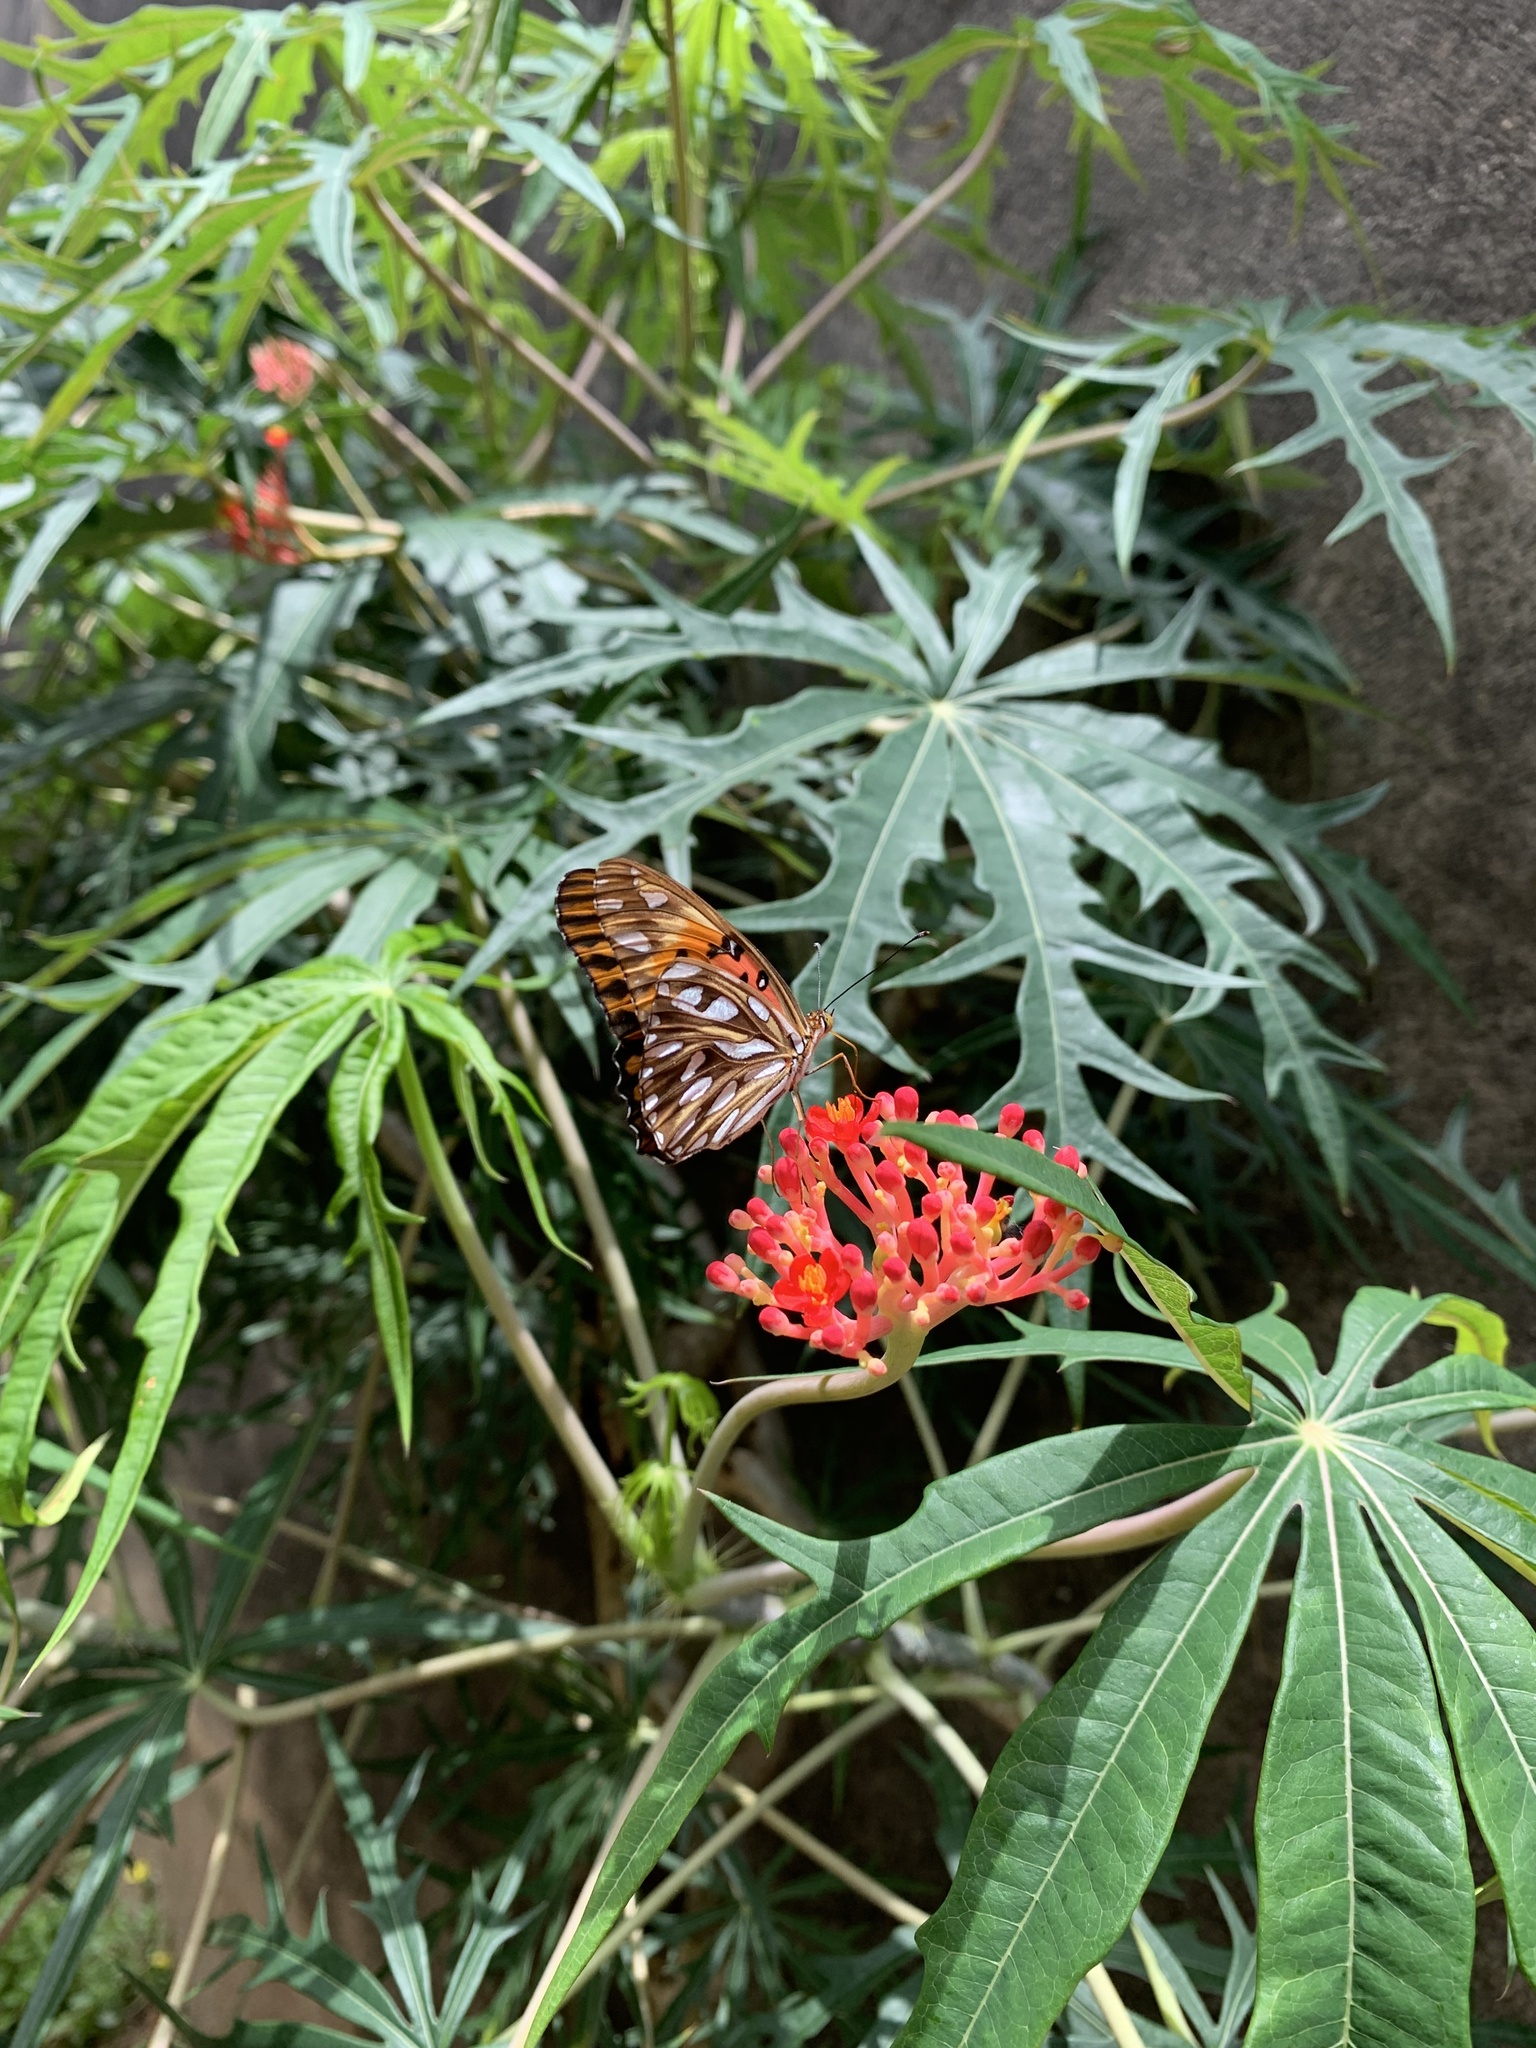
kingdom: Animalia
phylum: Arthropoda
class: Insecta
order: Lepidoptera
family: Nymphalidae
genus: Dione
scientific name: Dione vanillae
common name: Gulf fritillary
